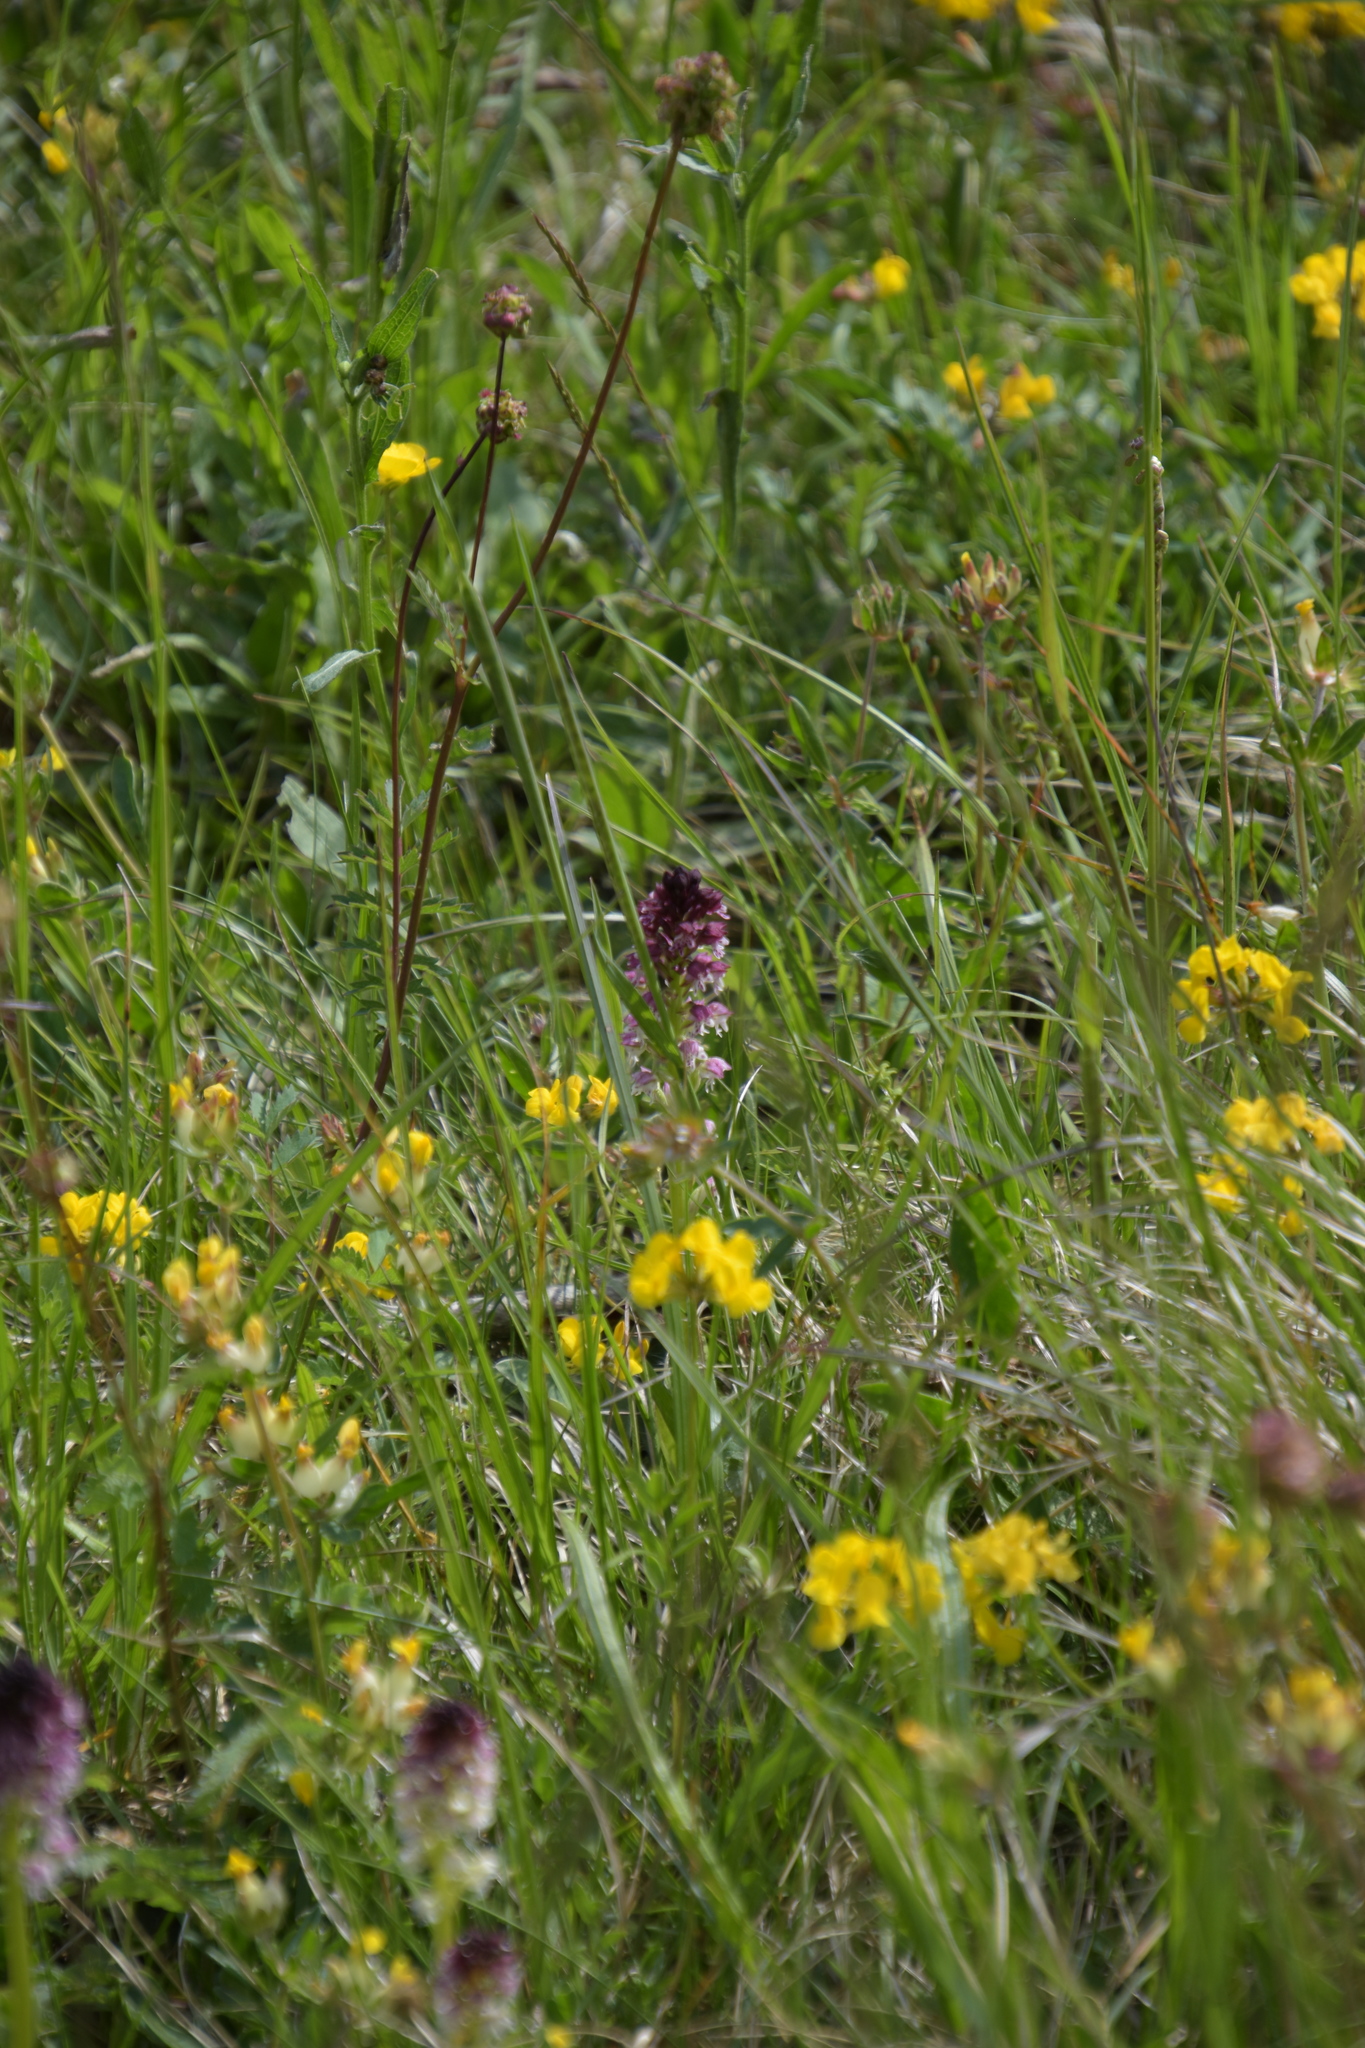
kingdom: Plantae
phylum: Tracheophyta
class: Liliopsida
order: Asparagales
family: Orchidaceae
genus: Neotinea
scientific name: Neotinea ustulata
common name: Burnt orchid
